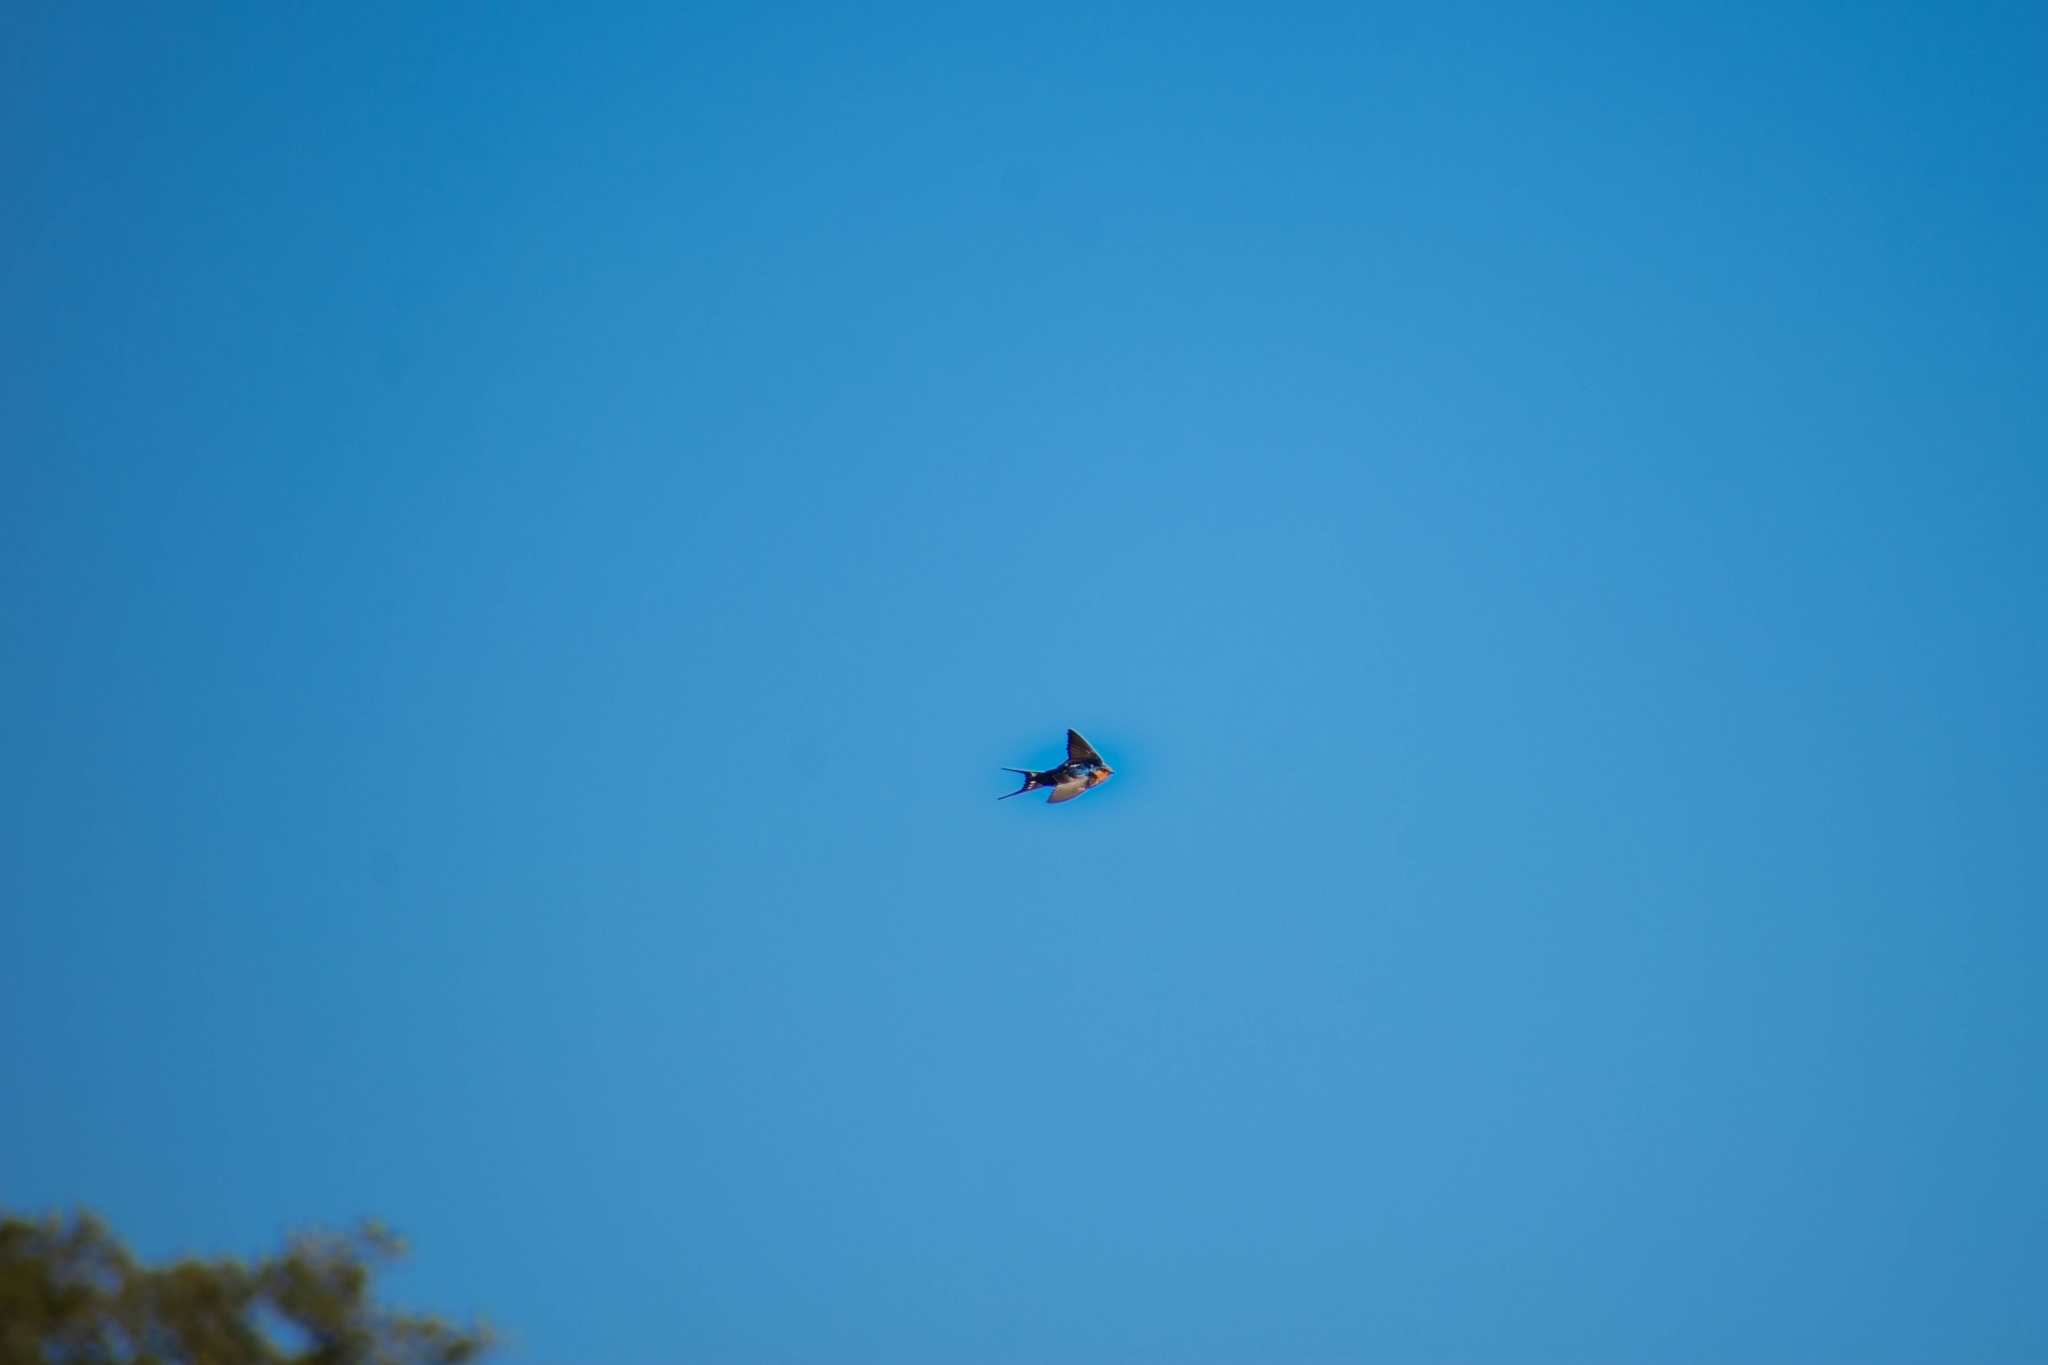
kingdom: Animalia
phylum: Chordata
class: Aves
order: Passeriformes
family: Hirundinidae
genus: Hirundo
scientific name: Hirundo neoxena
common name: Welcome swallow
